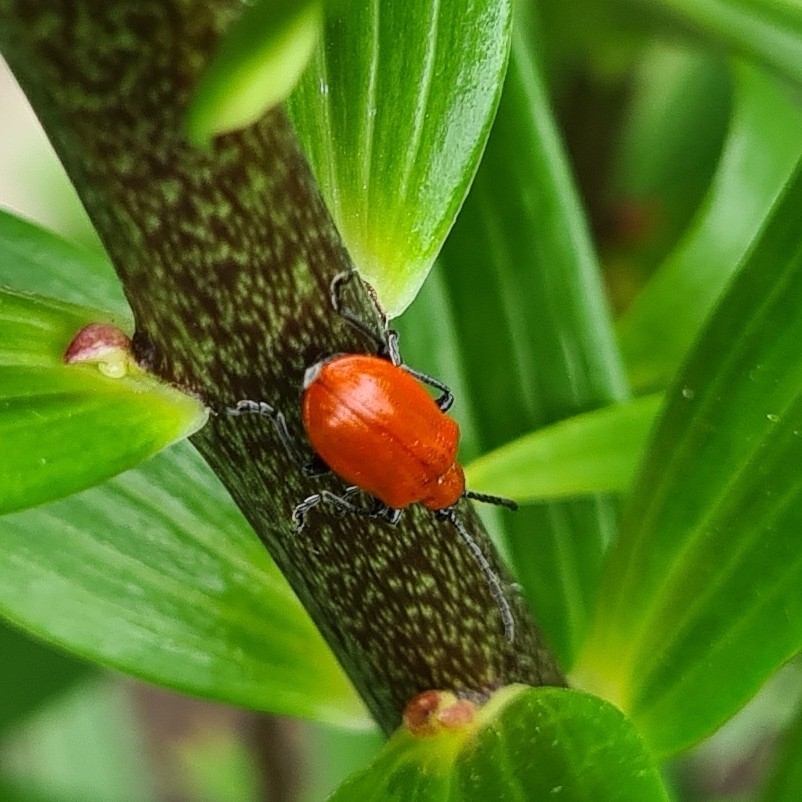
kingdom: Animalia
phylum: Arthropoda
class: Insecta
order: Coleoptera
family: Chrysomelidae
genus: Lilioceris
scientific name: Lilioceris lilii
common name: Lily beetle
